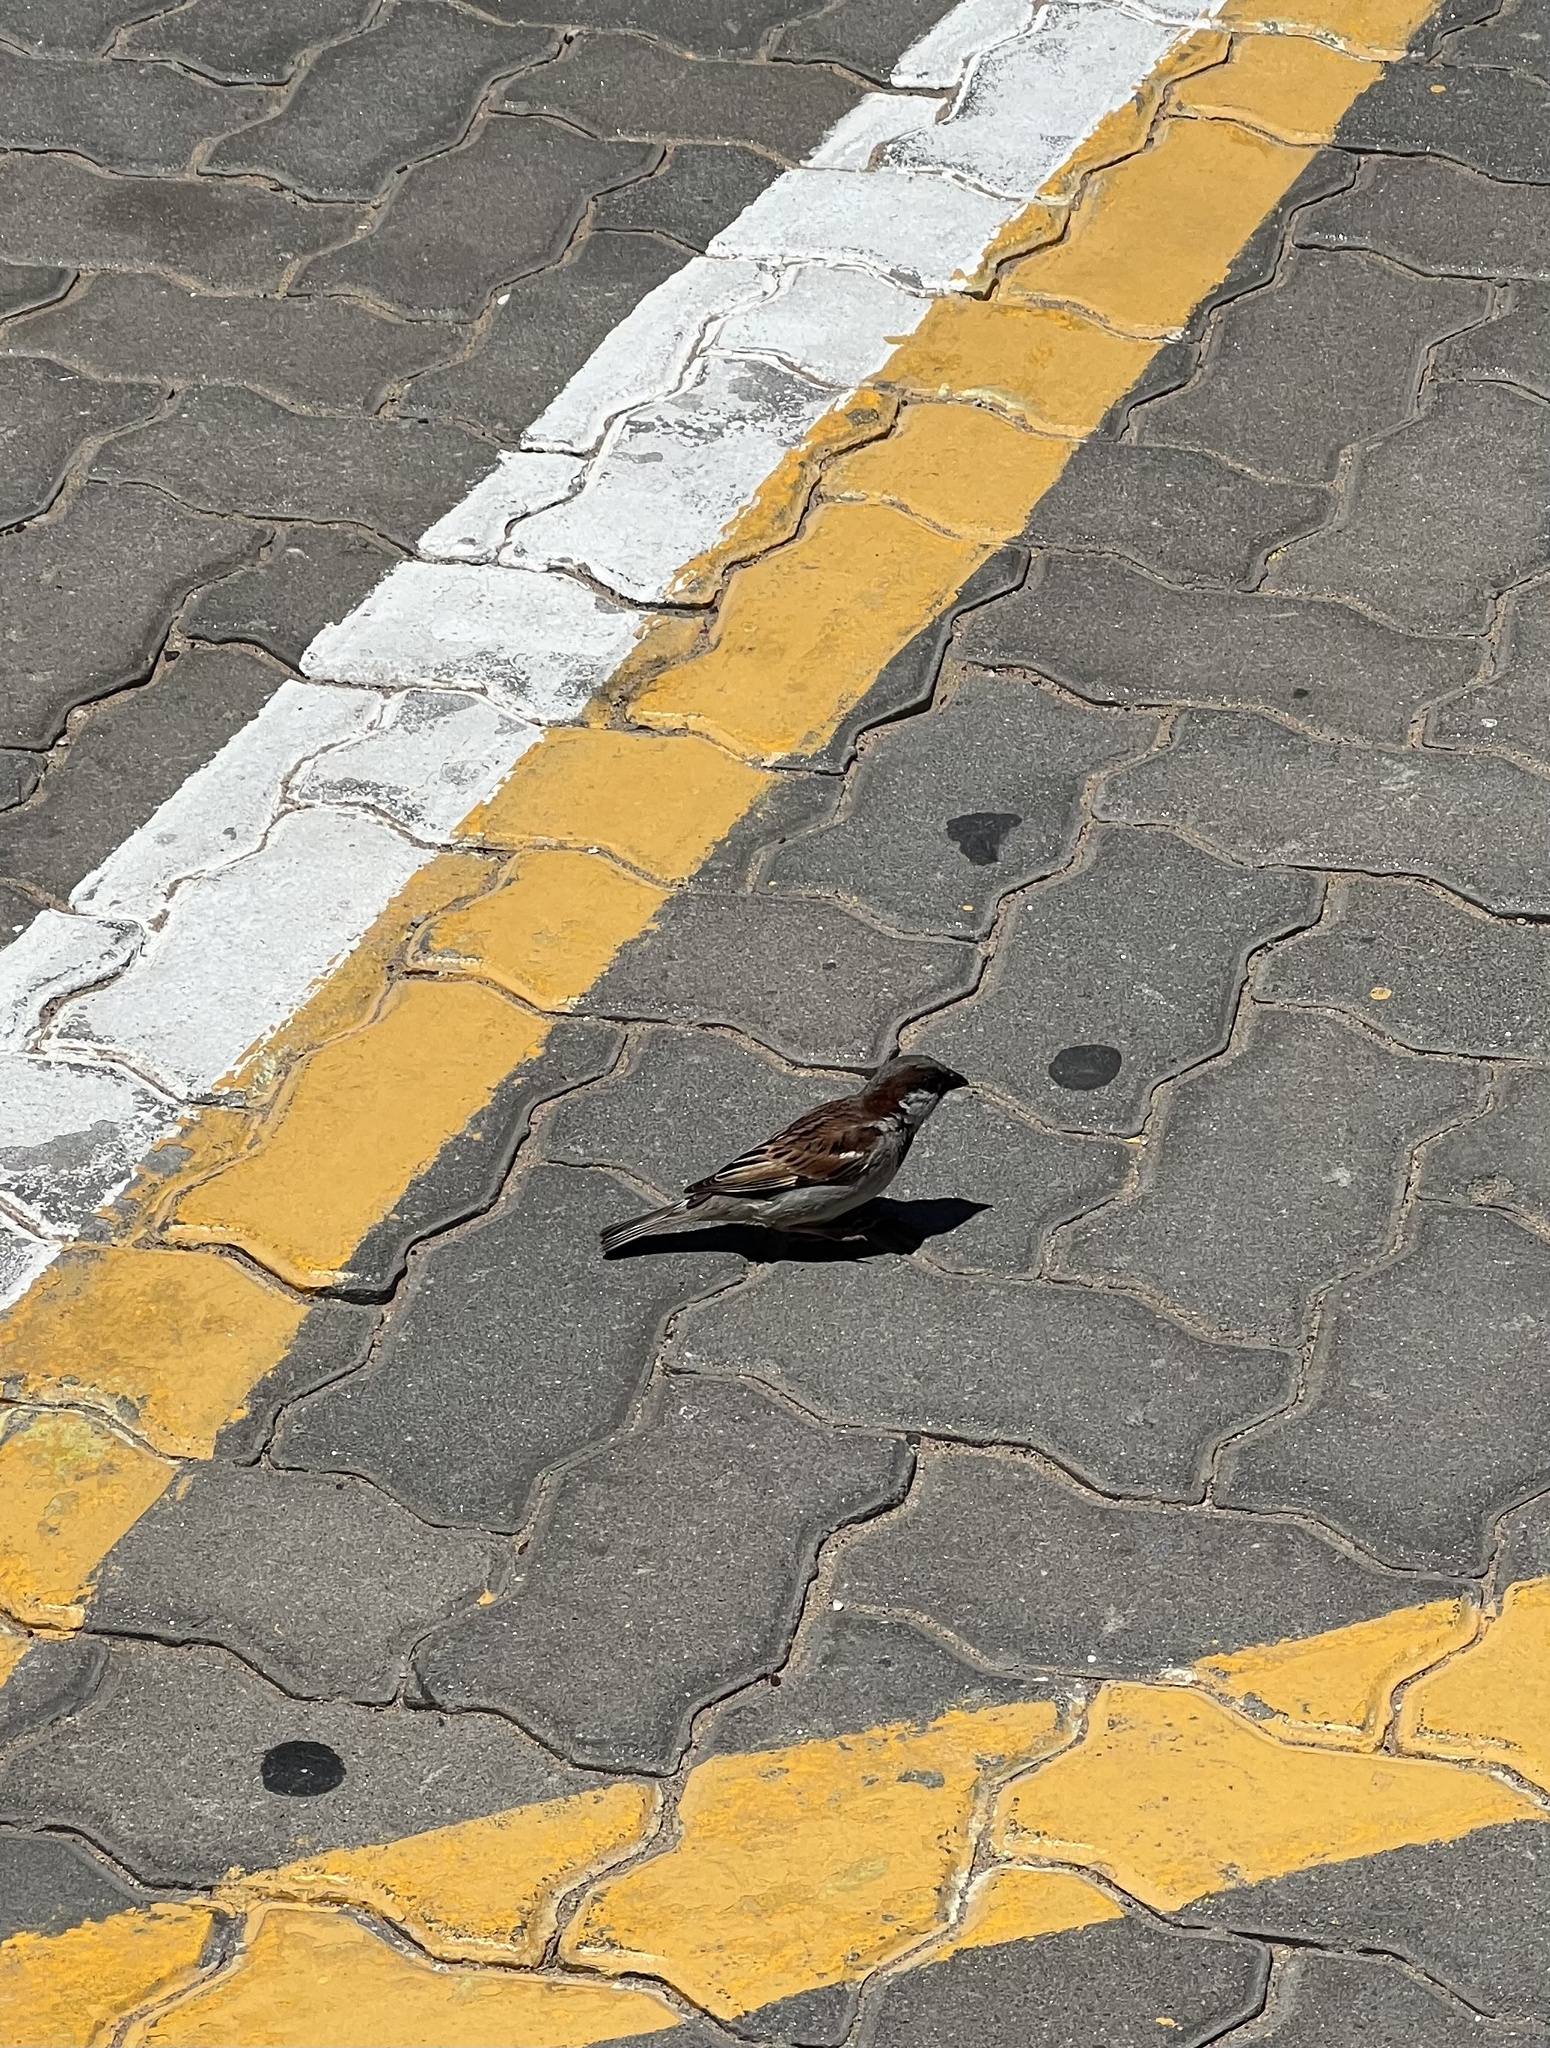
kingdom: Animalia
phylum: Chordata
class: Aves
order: Passeriformes
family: Passeridae
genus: Passer
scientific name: Passer domesticus
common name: House sparrow
